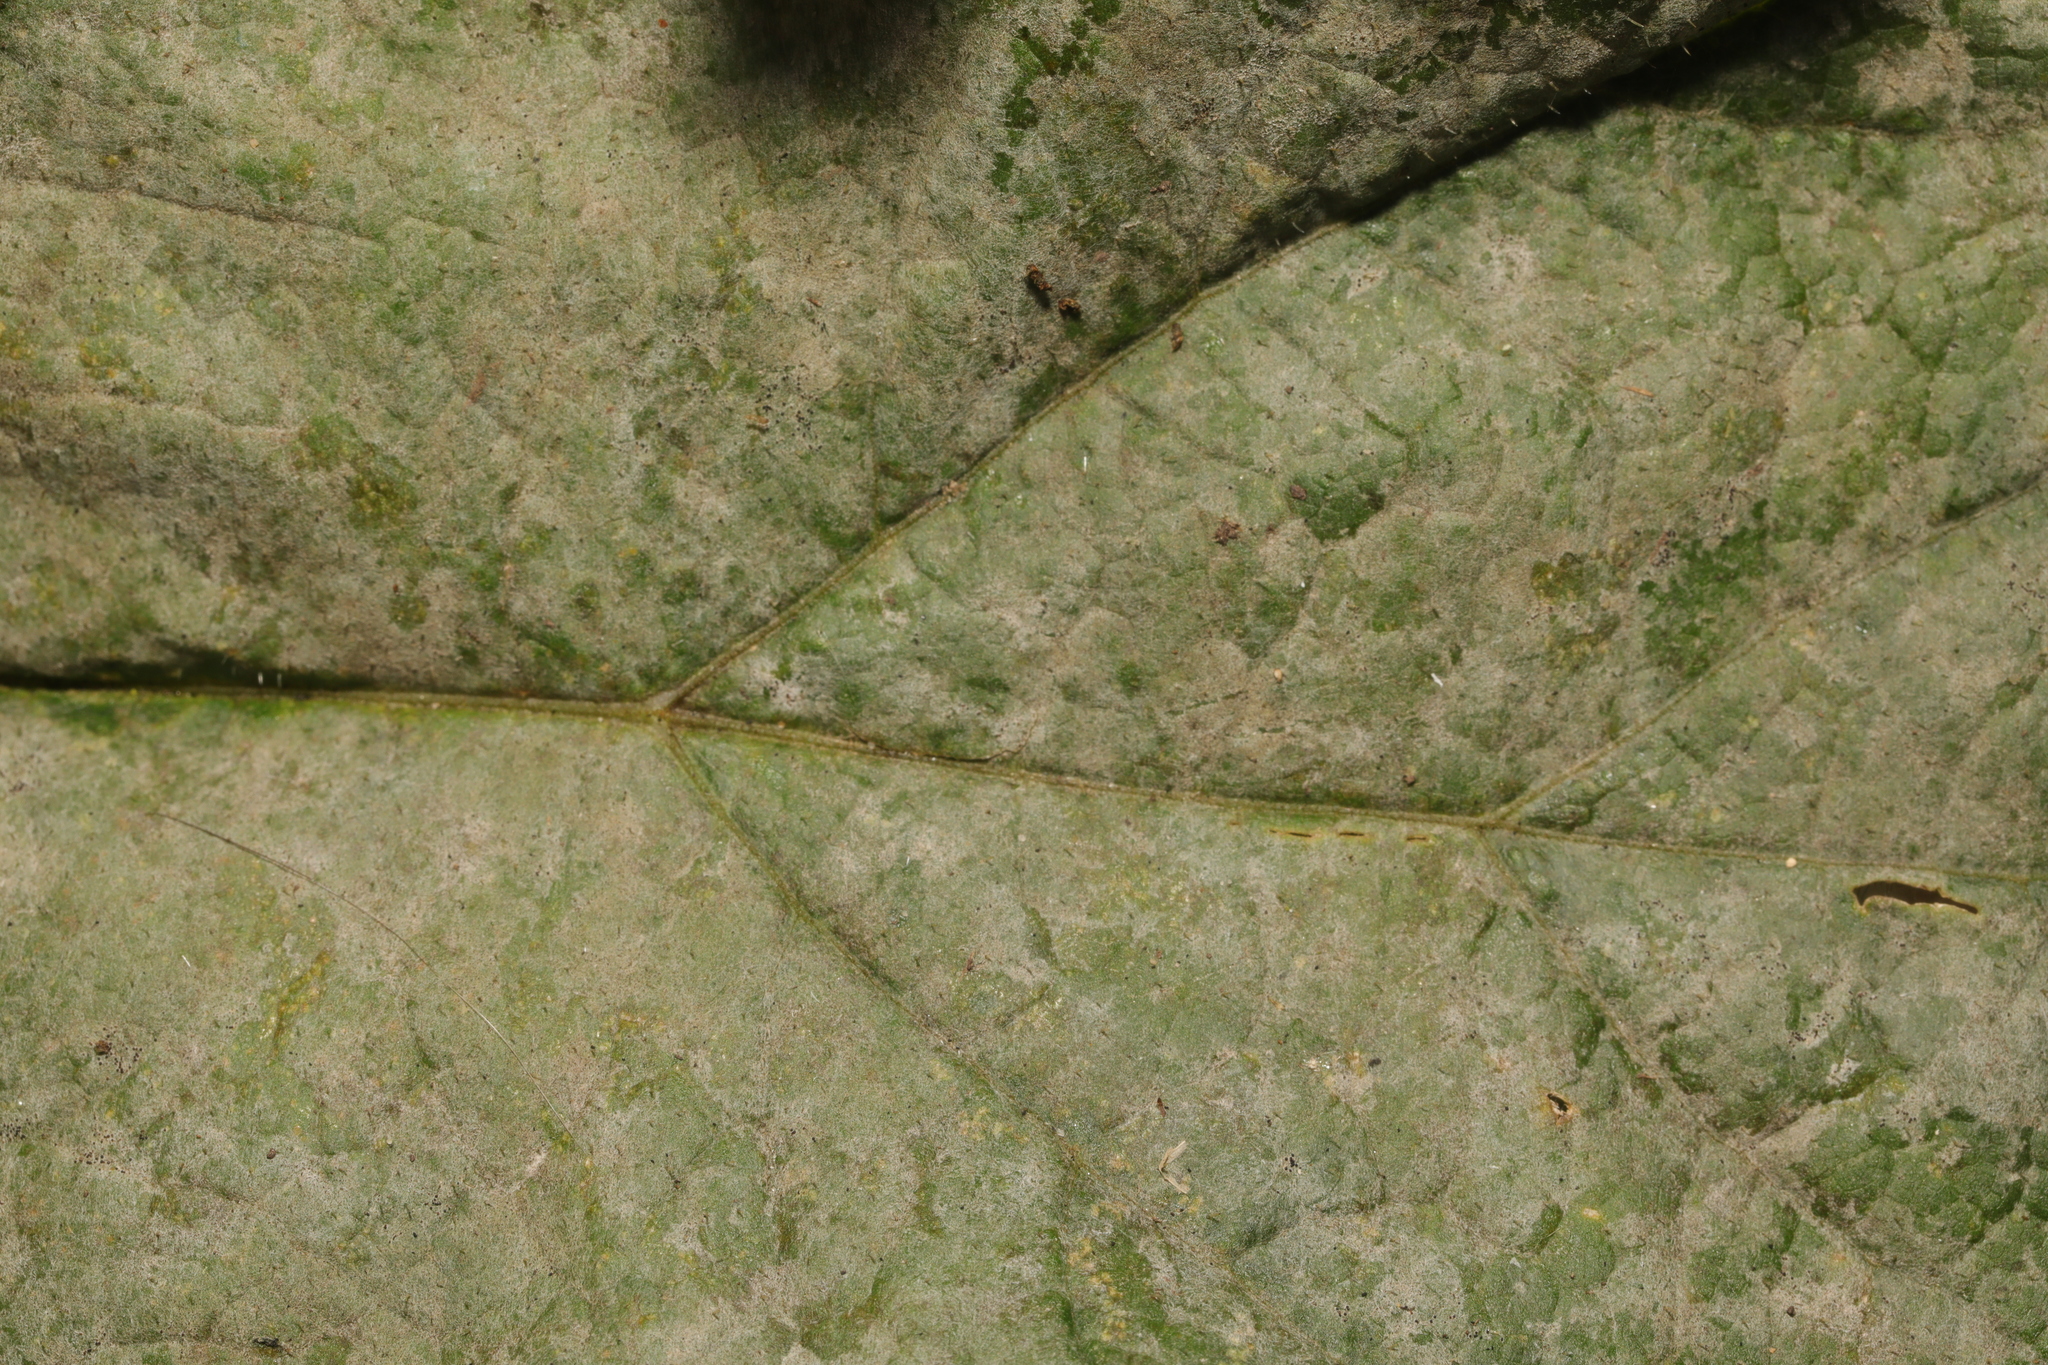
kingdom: Fungi
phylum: Ascomycota
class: Leotiomycetes
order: Helotiales
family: Erysiphaceae
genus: Erysiphe
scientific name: Erysiphe heraclei
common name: Umbellifer mildew
